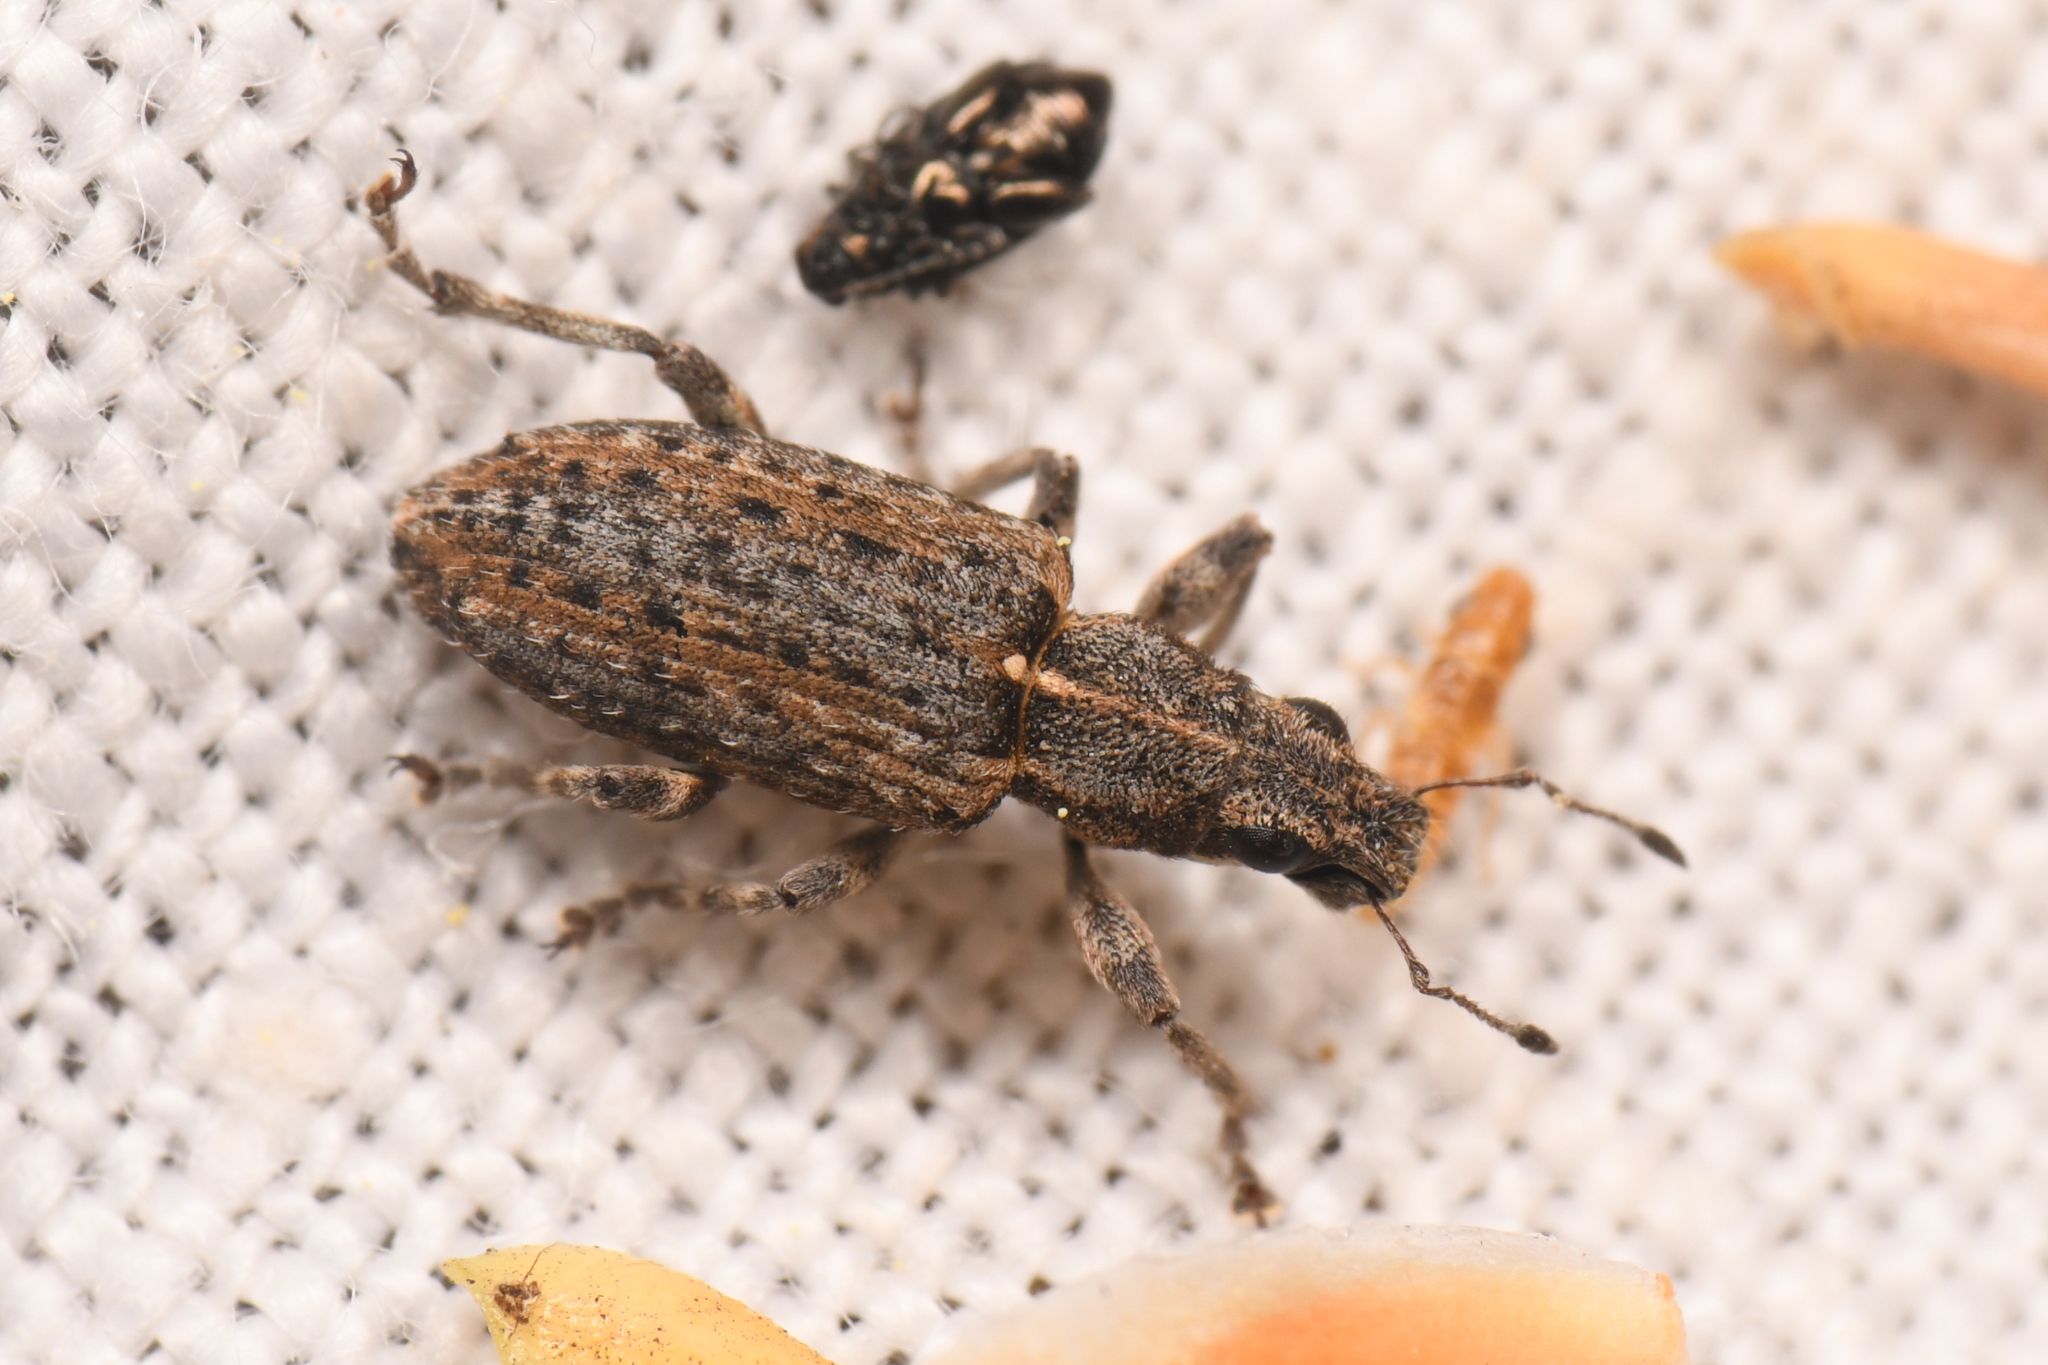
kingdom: Animalia
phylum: Arthropoda
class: Insecta
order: Coleoptera
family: Curculionidae
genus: Sitones
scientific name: Sitones californius
